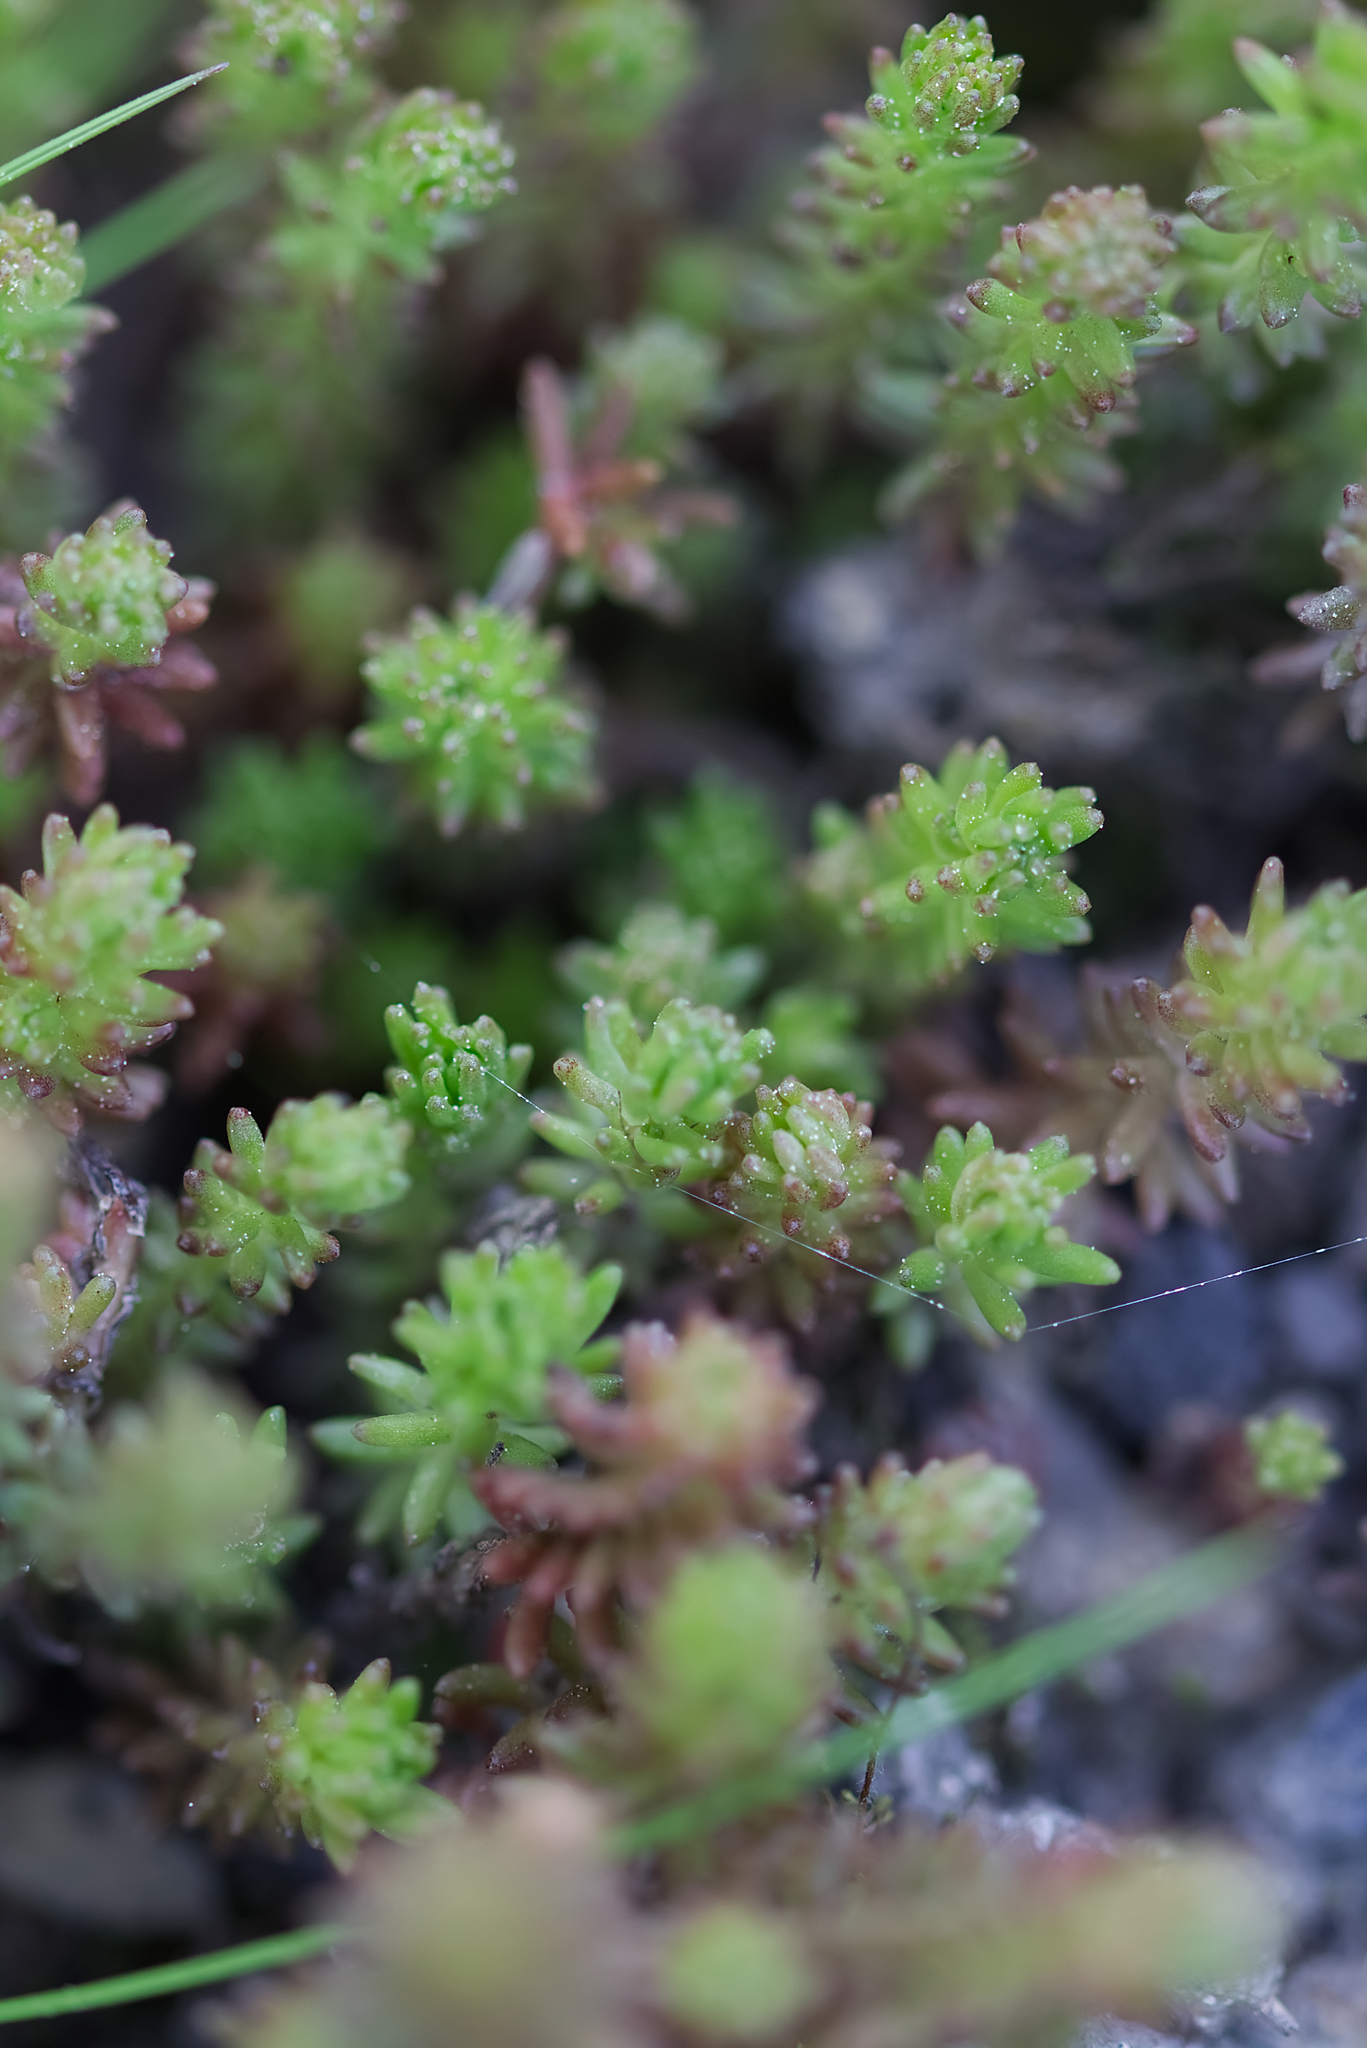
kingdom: Plantae
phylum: Tracheophyta
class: Magnoliopsida
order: Saxifragales
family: Crassulaceae
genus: Sedum
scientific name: Sedum sexangulare
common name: Tasteless stonecrop
